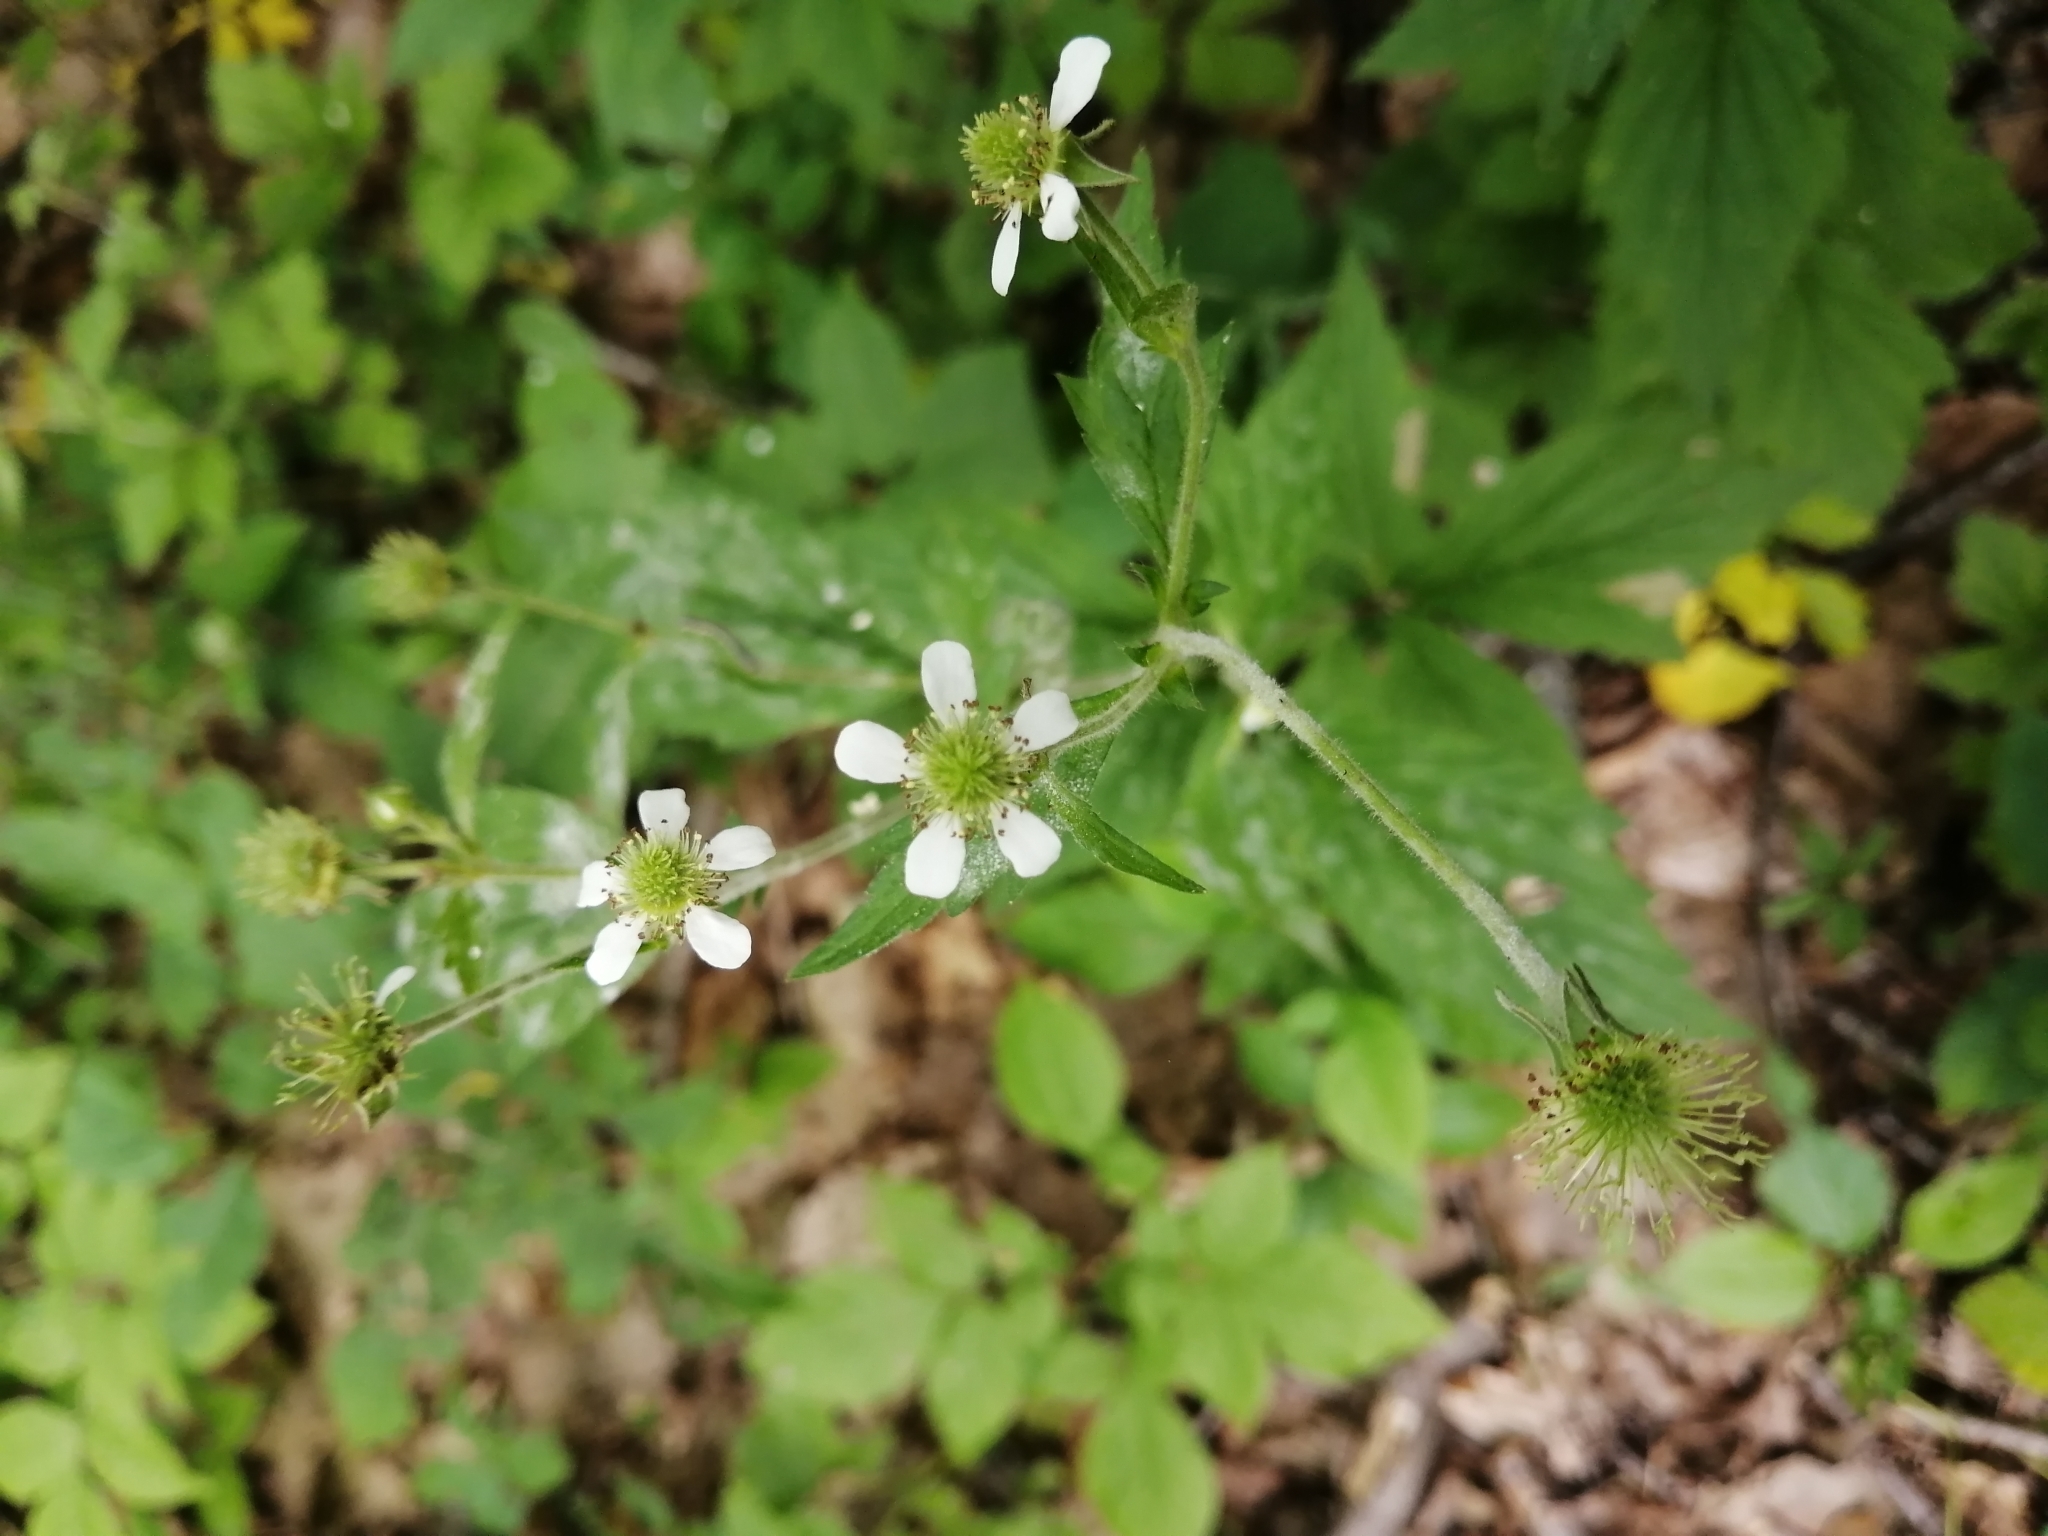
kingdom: Plantae
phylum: Tracheophyta
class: Magnoliopsida
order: Rosales
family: Rosaceae
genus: Geum
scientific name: Geum canadense
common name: White avens
